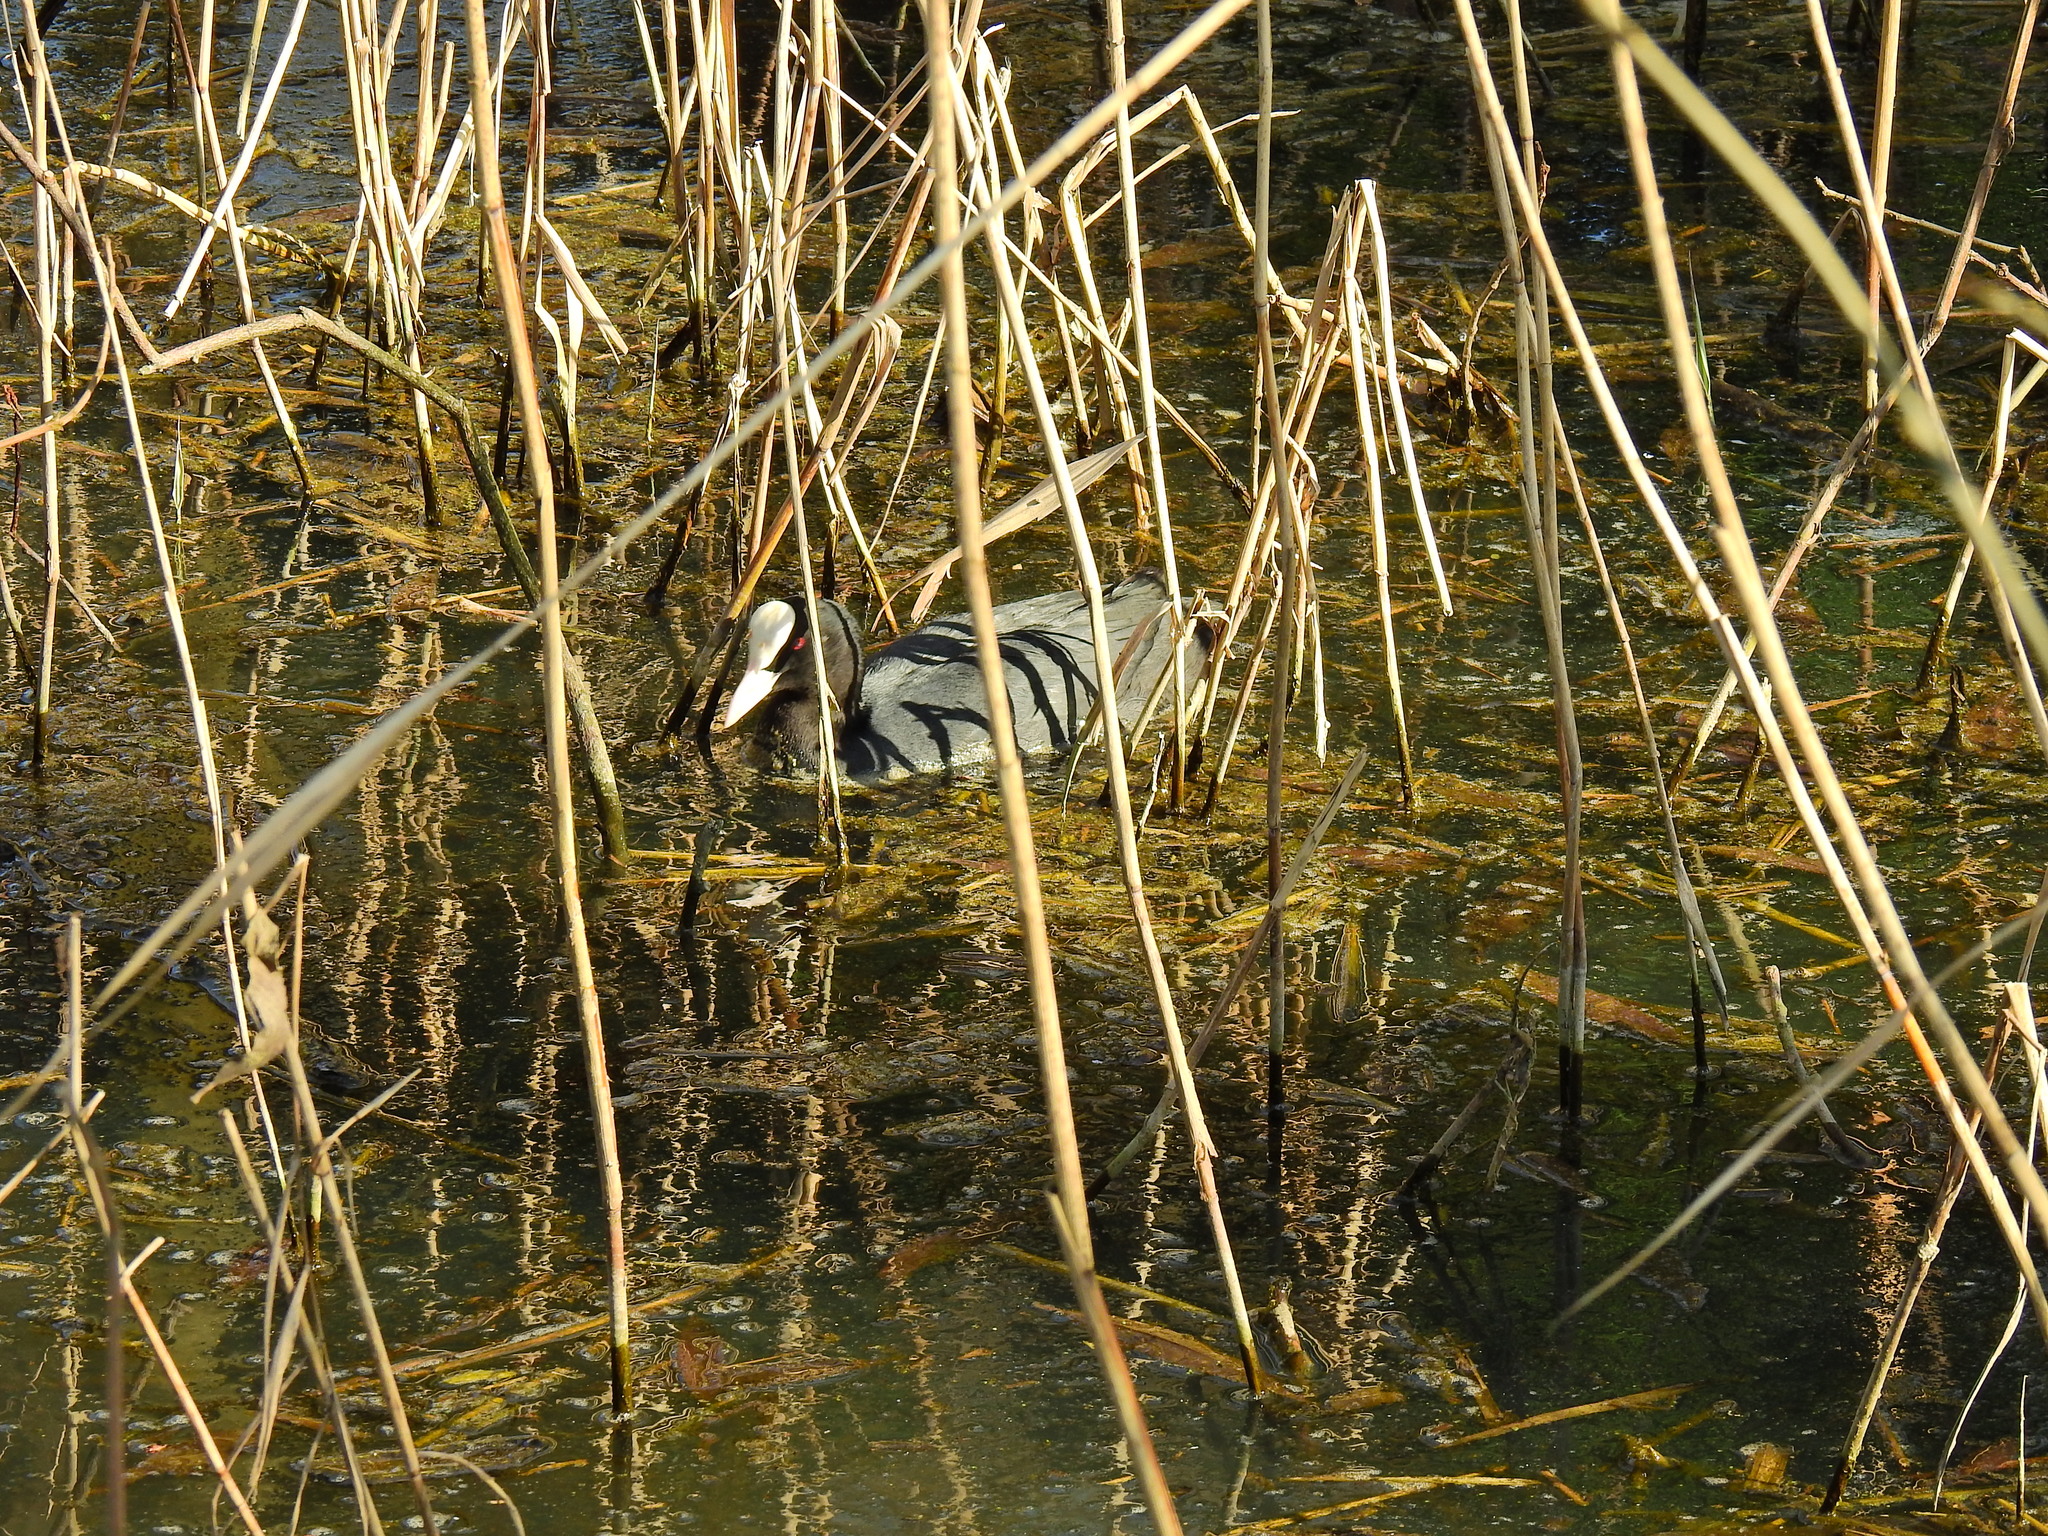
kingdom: Animalia
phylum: Chordata
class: Aves
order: Gruiformes
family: Rallidae
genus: Fulica
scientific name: Fulica atra
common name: Eurasian coot
